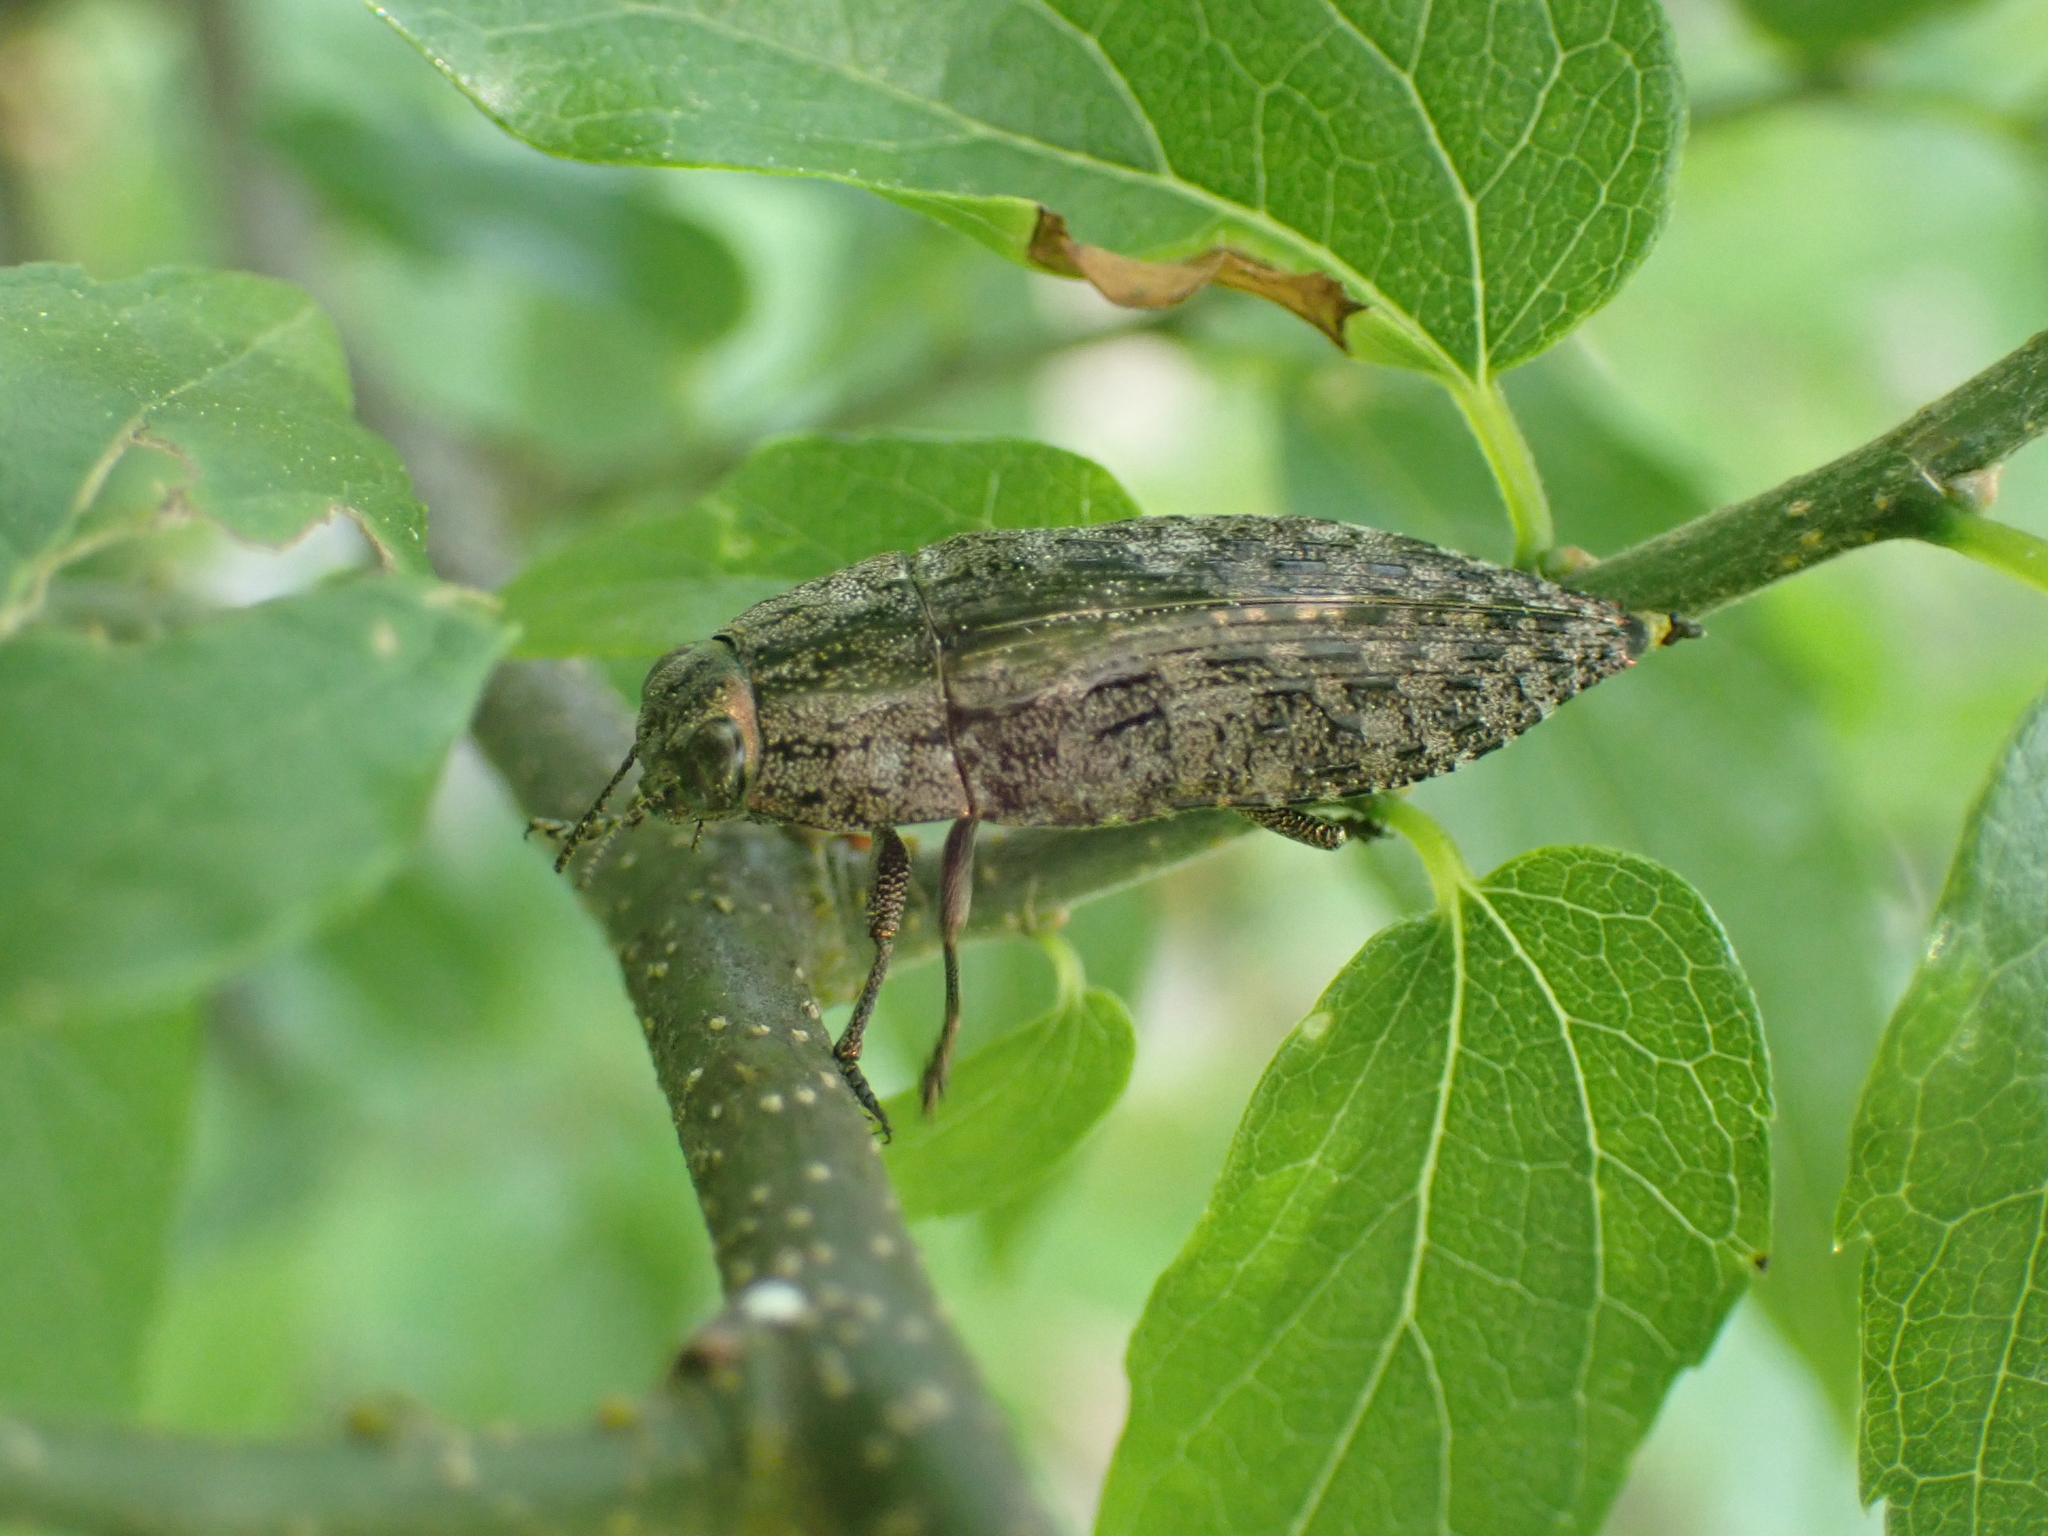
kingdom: Animalia
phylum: Arthropoda
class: Insecta
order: Coleoptera
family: Buprestidae
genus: Dicerca
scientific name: Dicerca obscura
